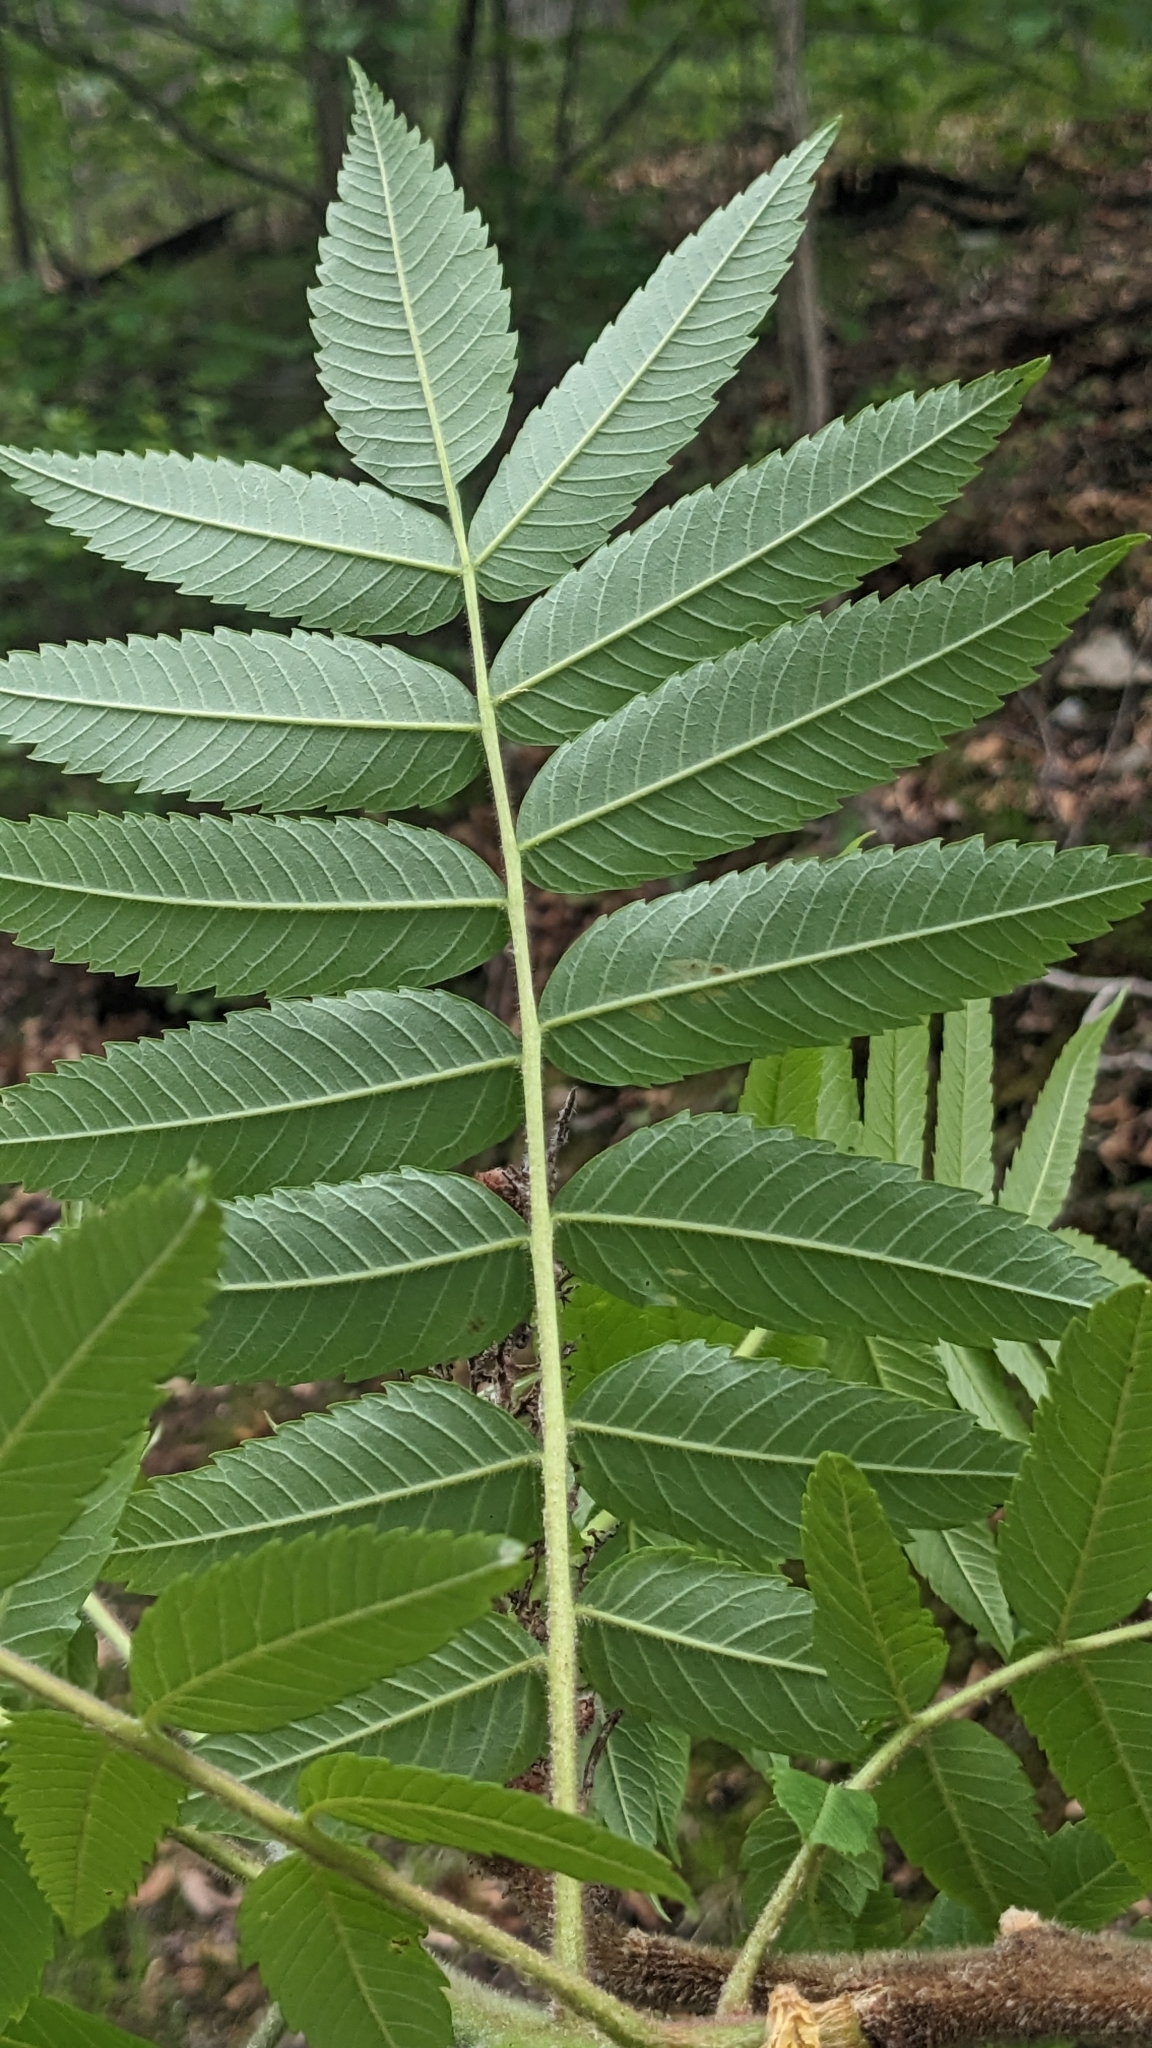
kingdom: Plantae
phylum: Tracheophyta
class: Magnoliopsida
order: Sapindales
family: Anacardiaceae
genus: Rhus
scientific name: Rhus typhina
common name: Staghorn sumac
